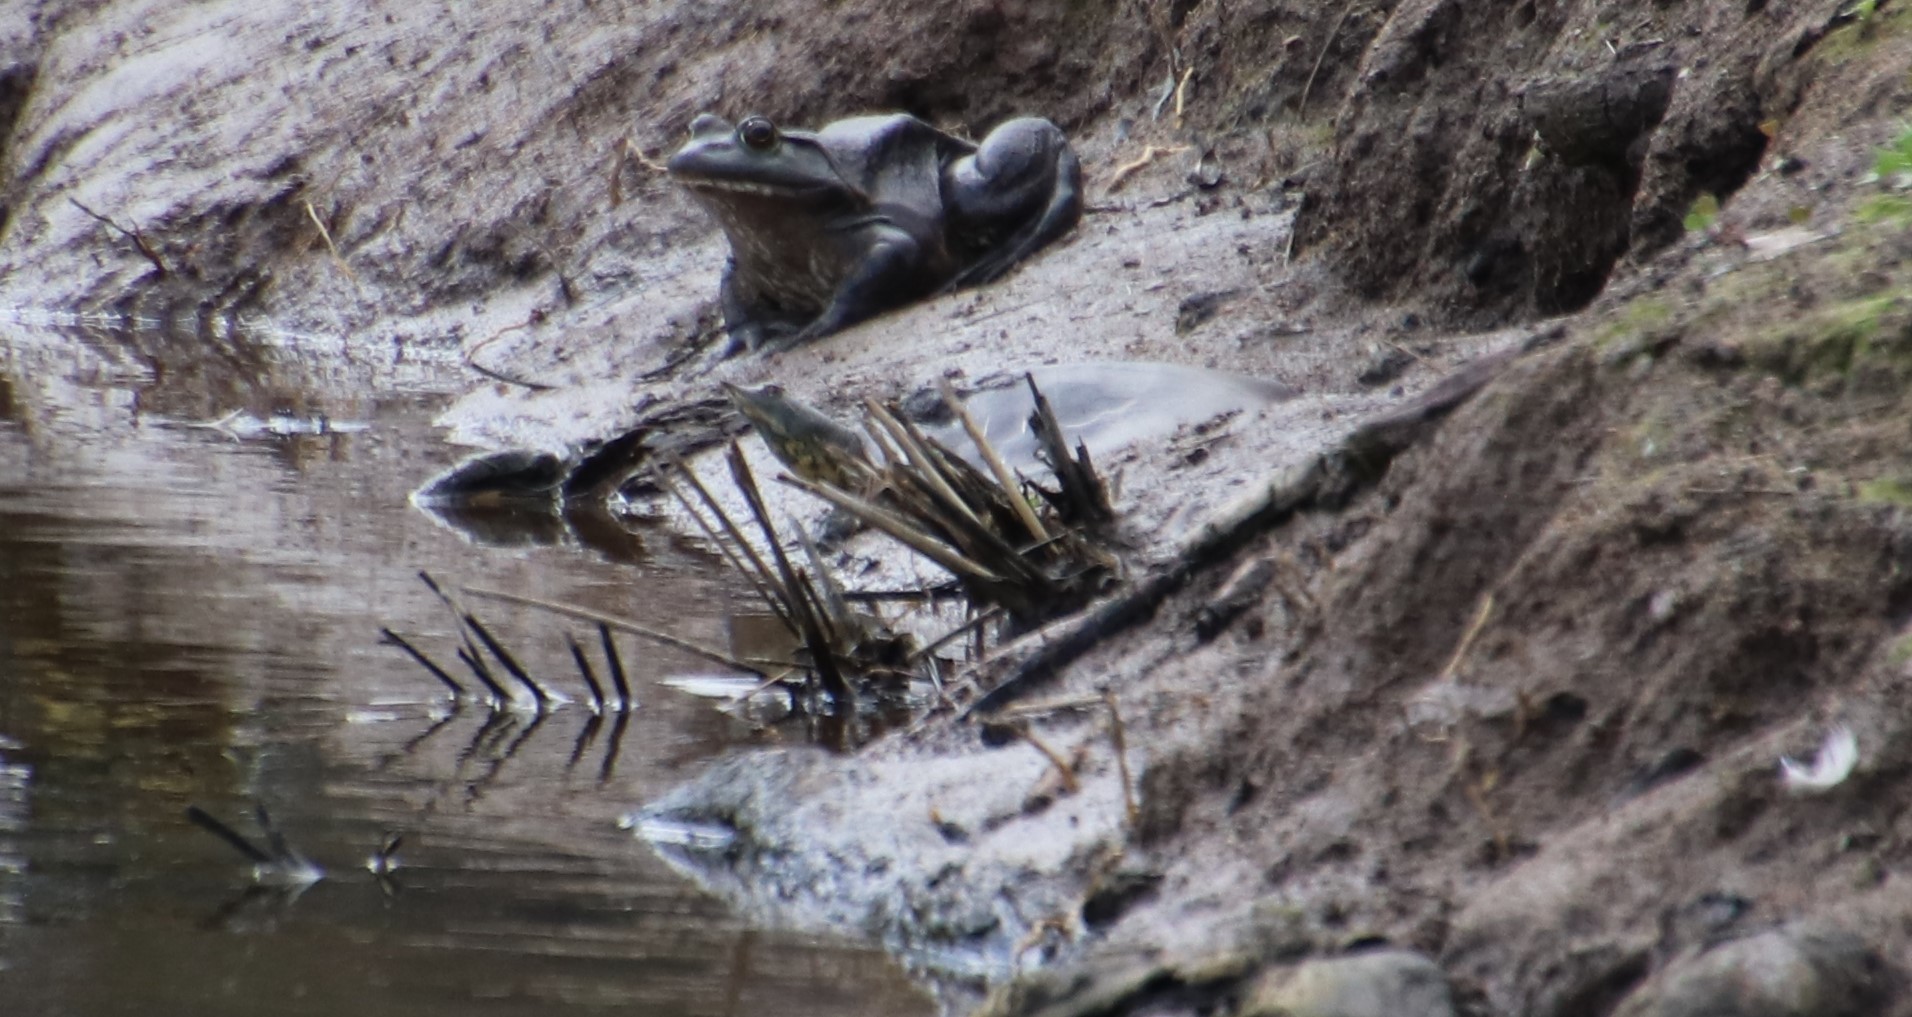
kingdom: Animalia
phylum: Chordata
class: Testudines
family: Trionychidae
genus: Apalone
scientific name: Apalone
